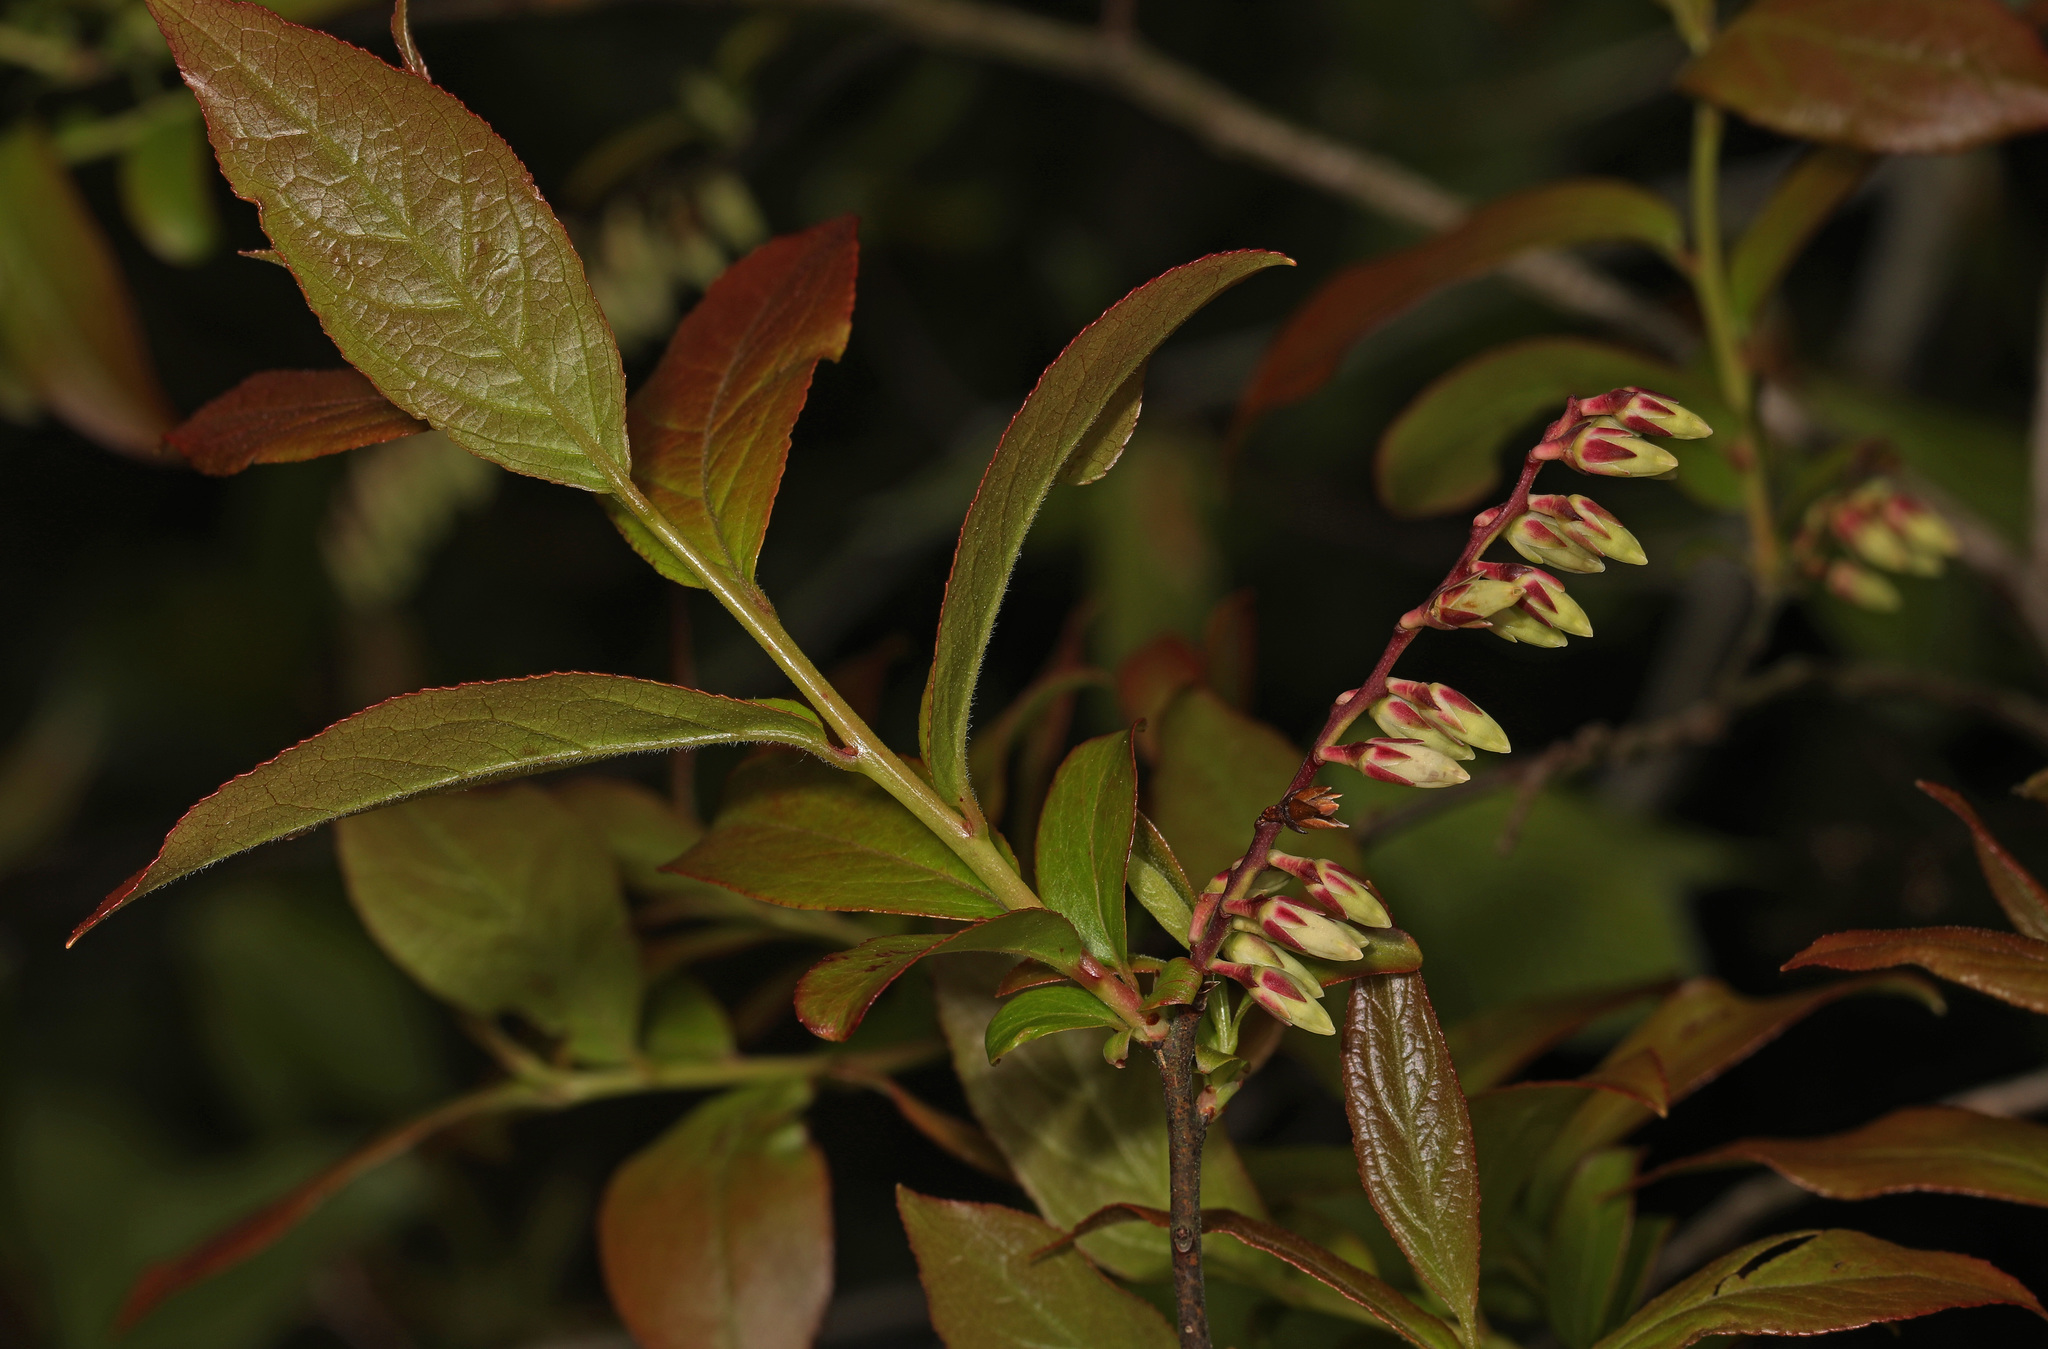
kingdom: Plantae
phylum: Tracheophyta
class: Magnoliopsida
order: Ericales
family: Ericaceae
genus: Eubotrys
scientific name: Eubotrys racemosa
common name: Fetterbush
